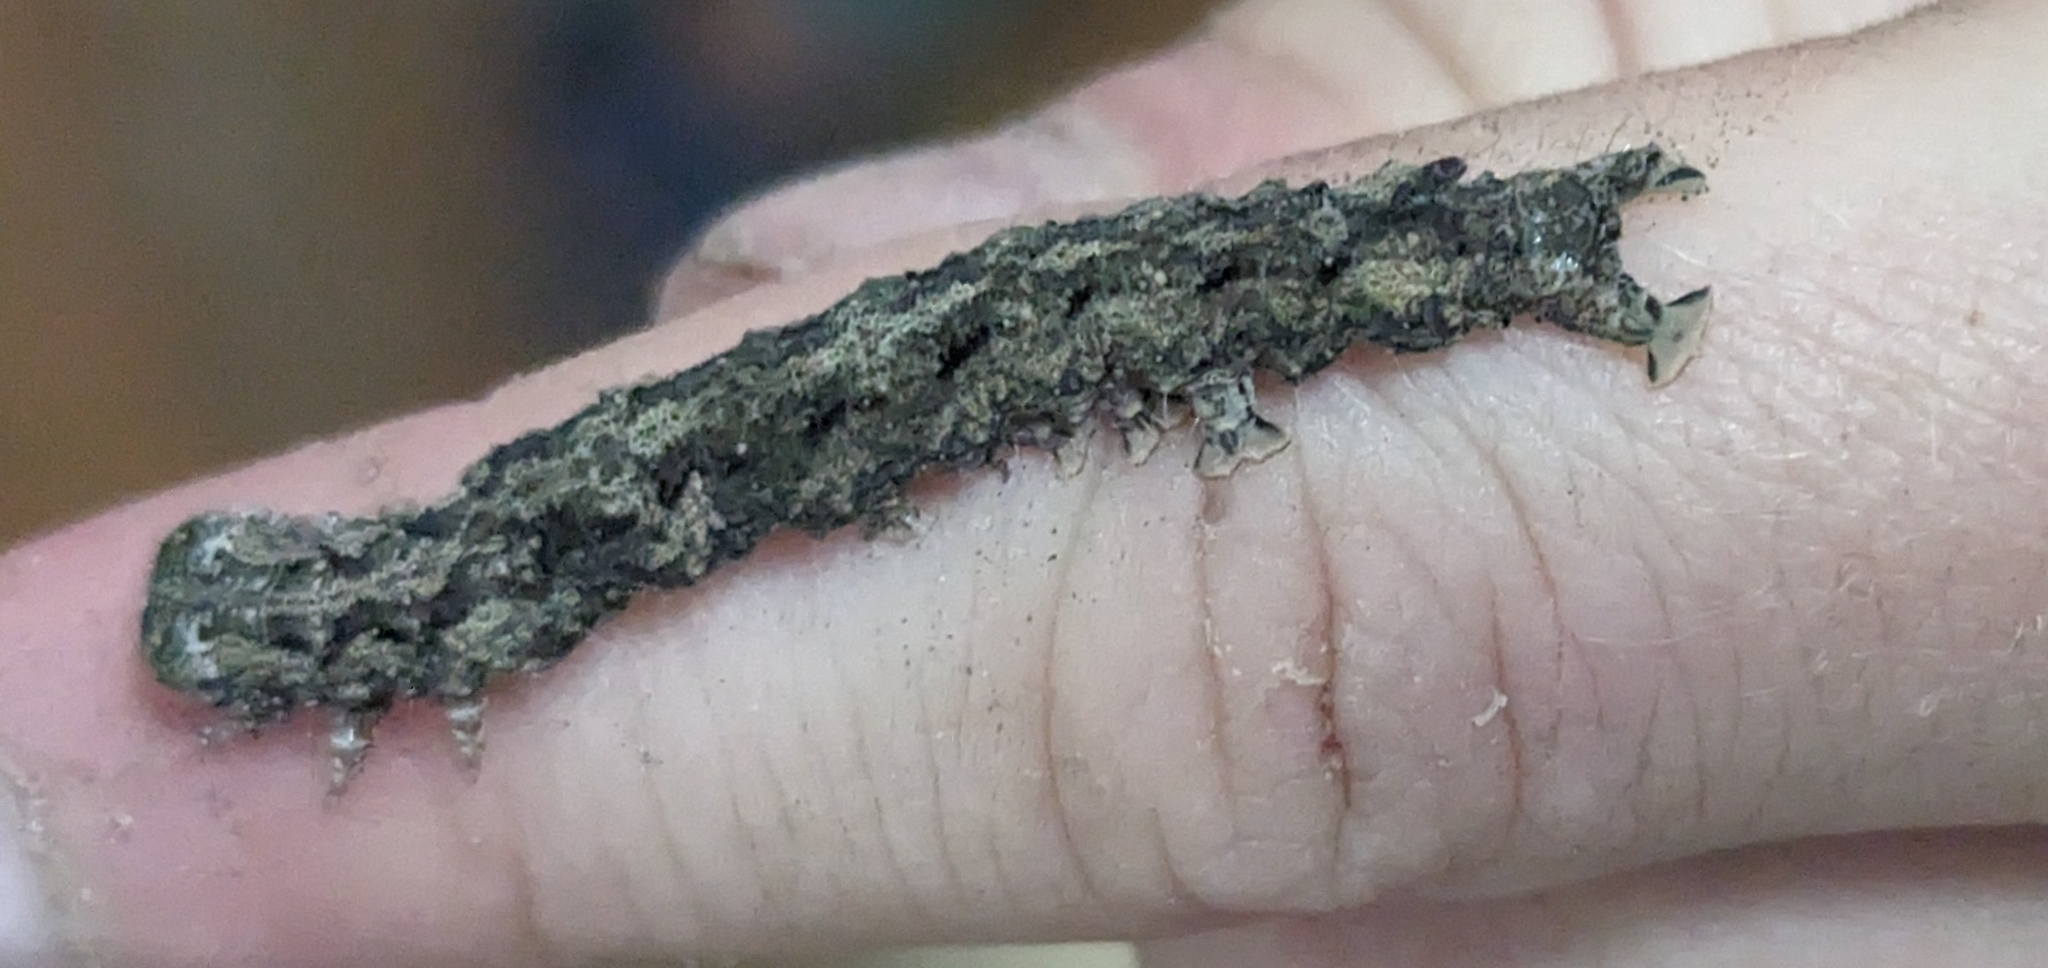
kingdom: Animalia
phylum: Arthropoda
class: Insecta
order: Lepidoptera
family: Erebidae
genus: Achaea
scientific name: Achaea echo
